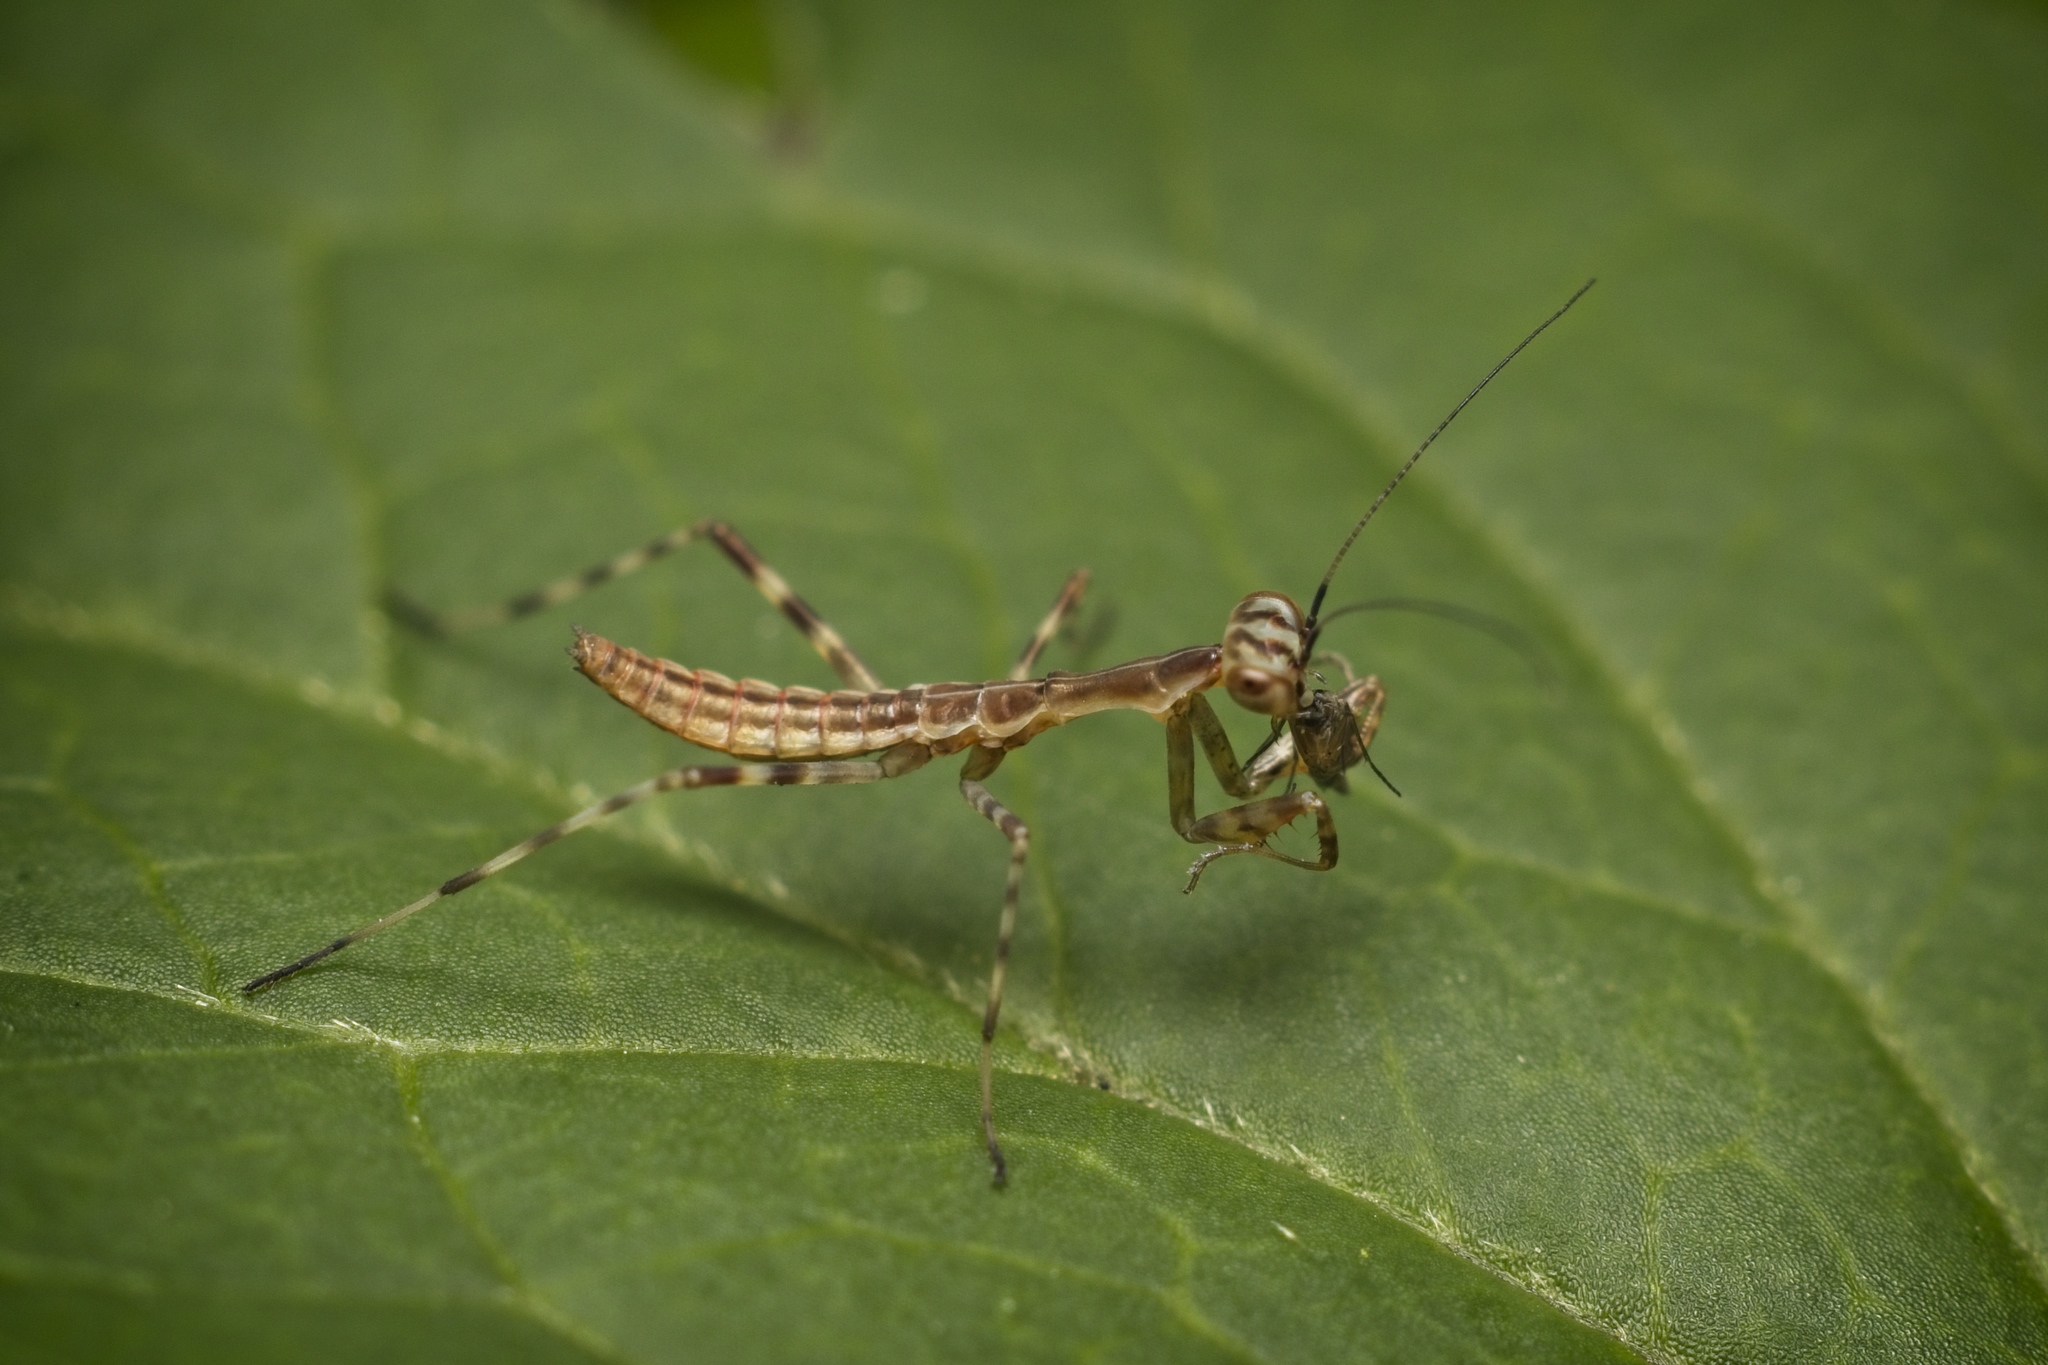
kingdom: Animalia
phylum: Arthropoda
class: Insecta
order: Mantodea
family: Miomantidae
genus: Miomantis
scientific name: Miomantis caffra
